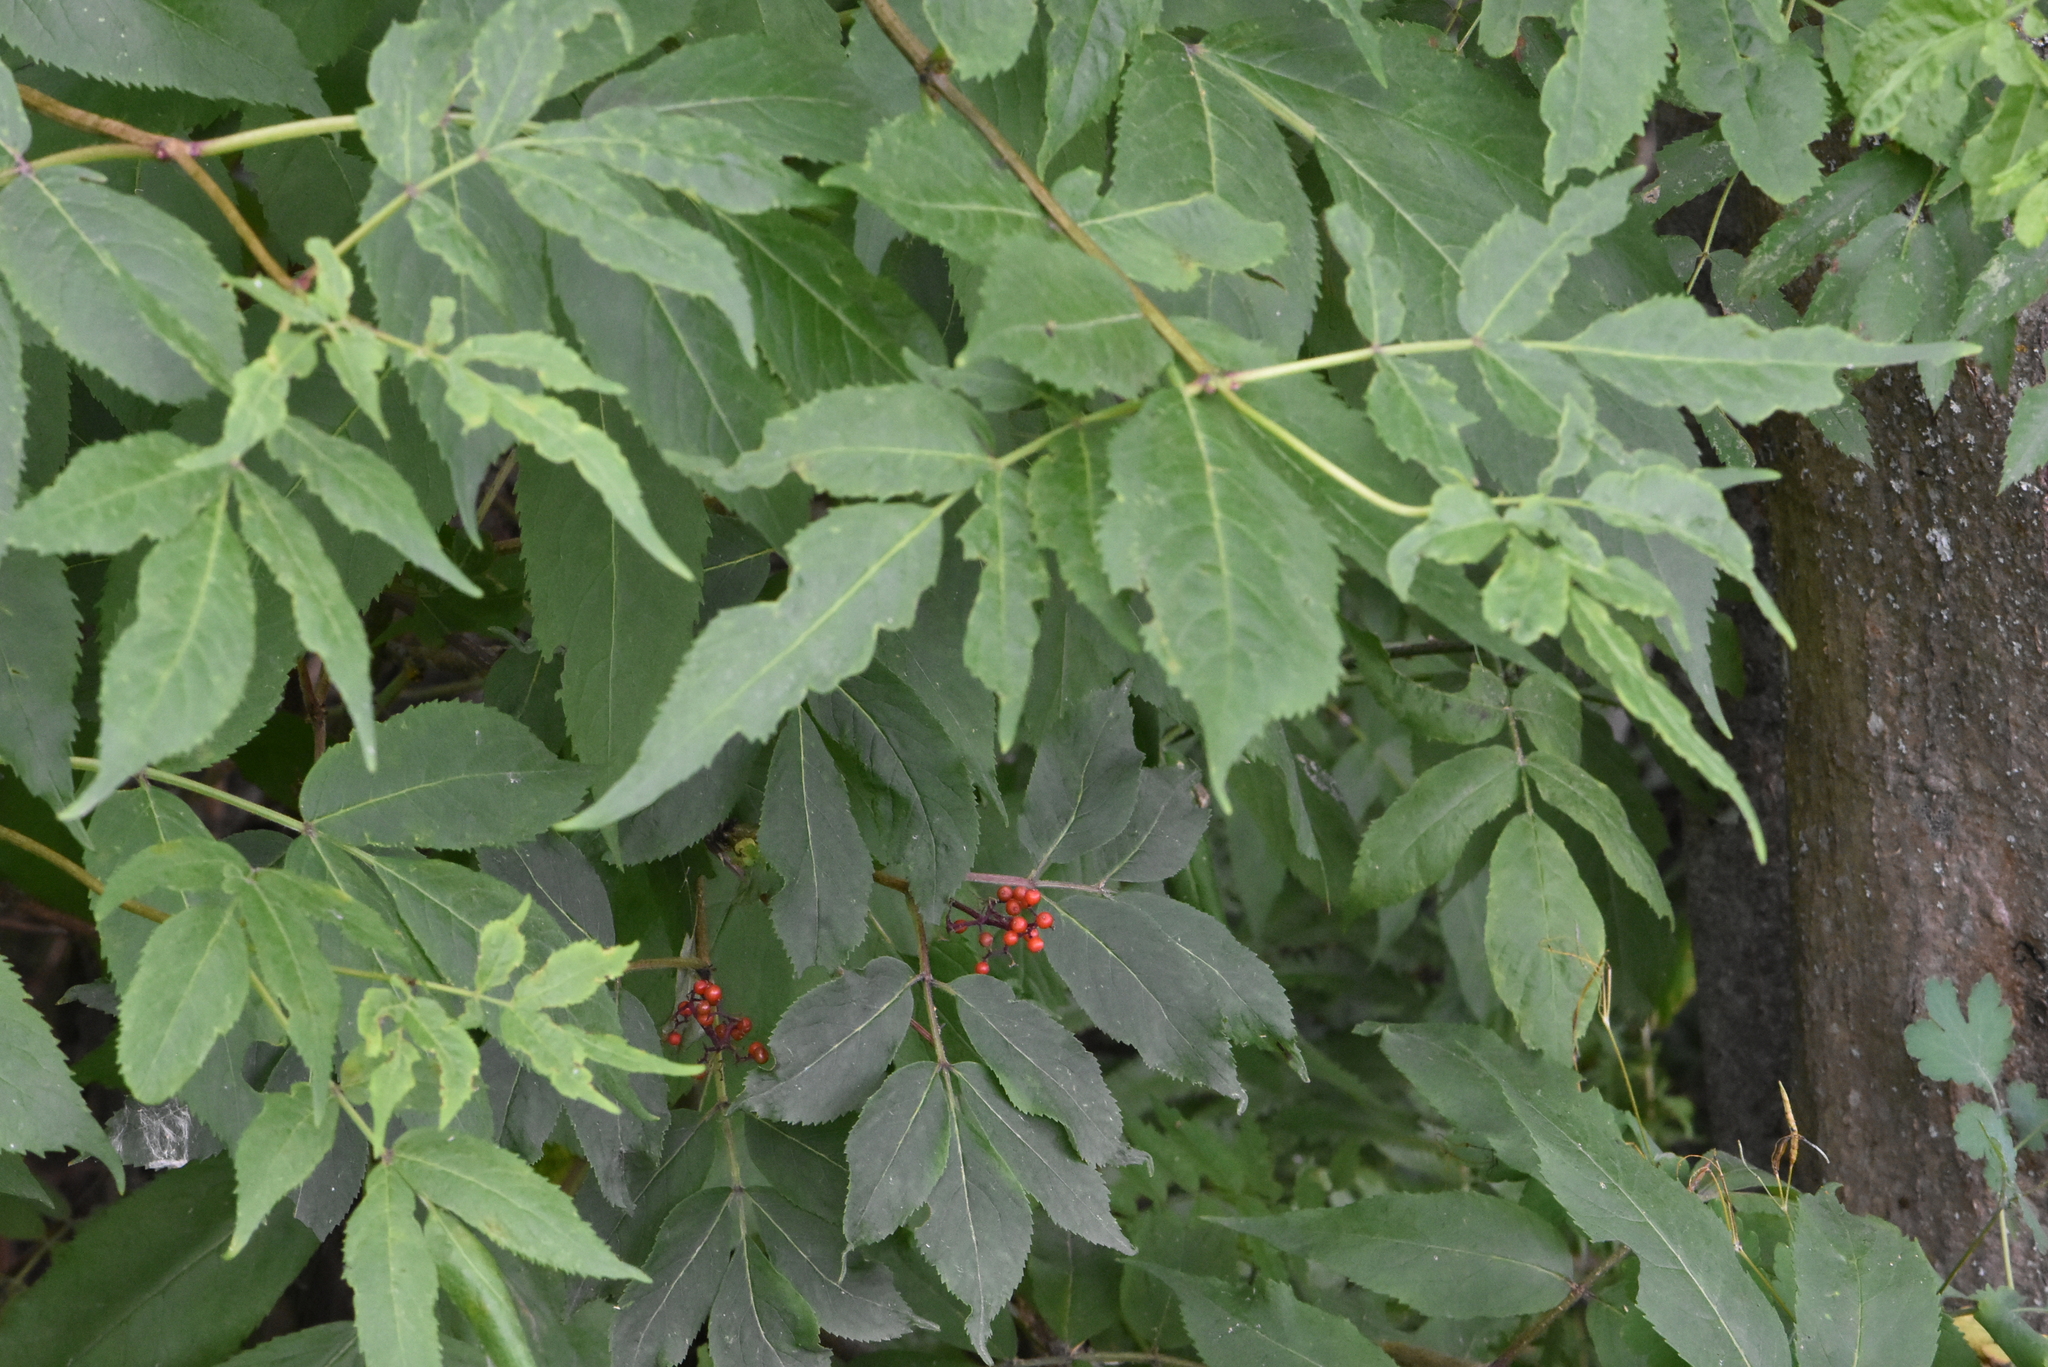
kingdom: Plantae
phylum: Tracheophyta
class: Magnoliopsida
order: Dipsacales
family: Viburnaceae
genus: Sambucus
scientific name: Sambucus racemosa
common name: Red-berried elder
